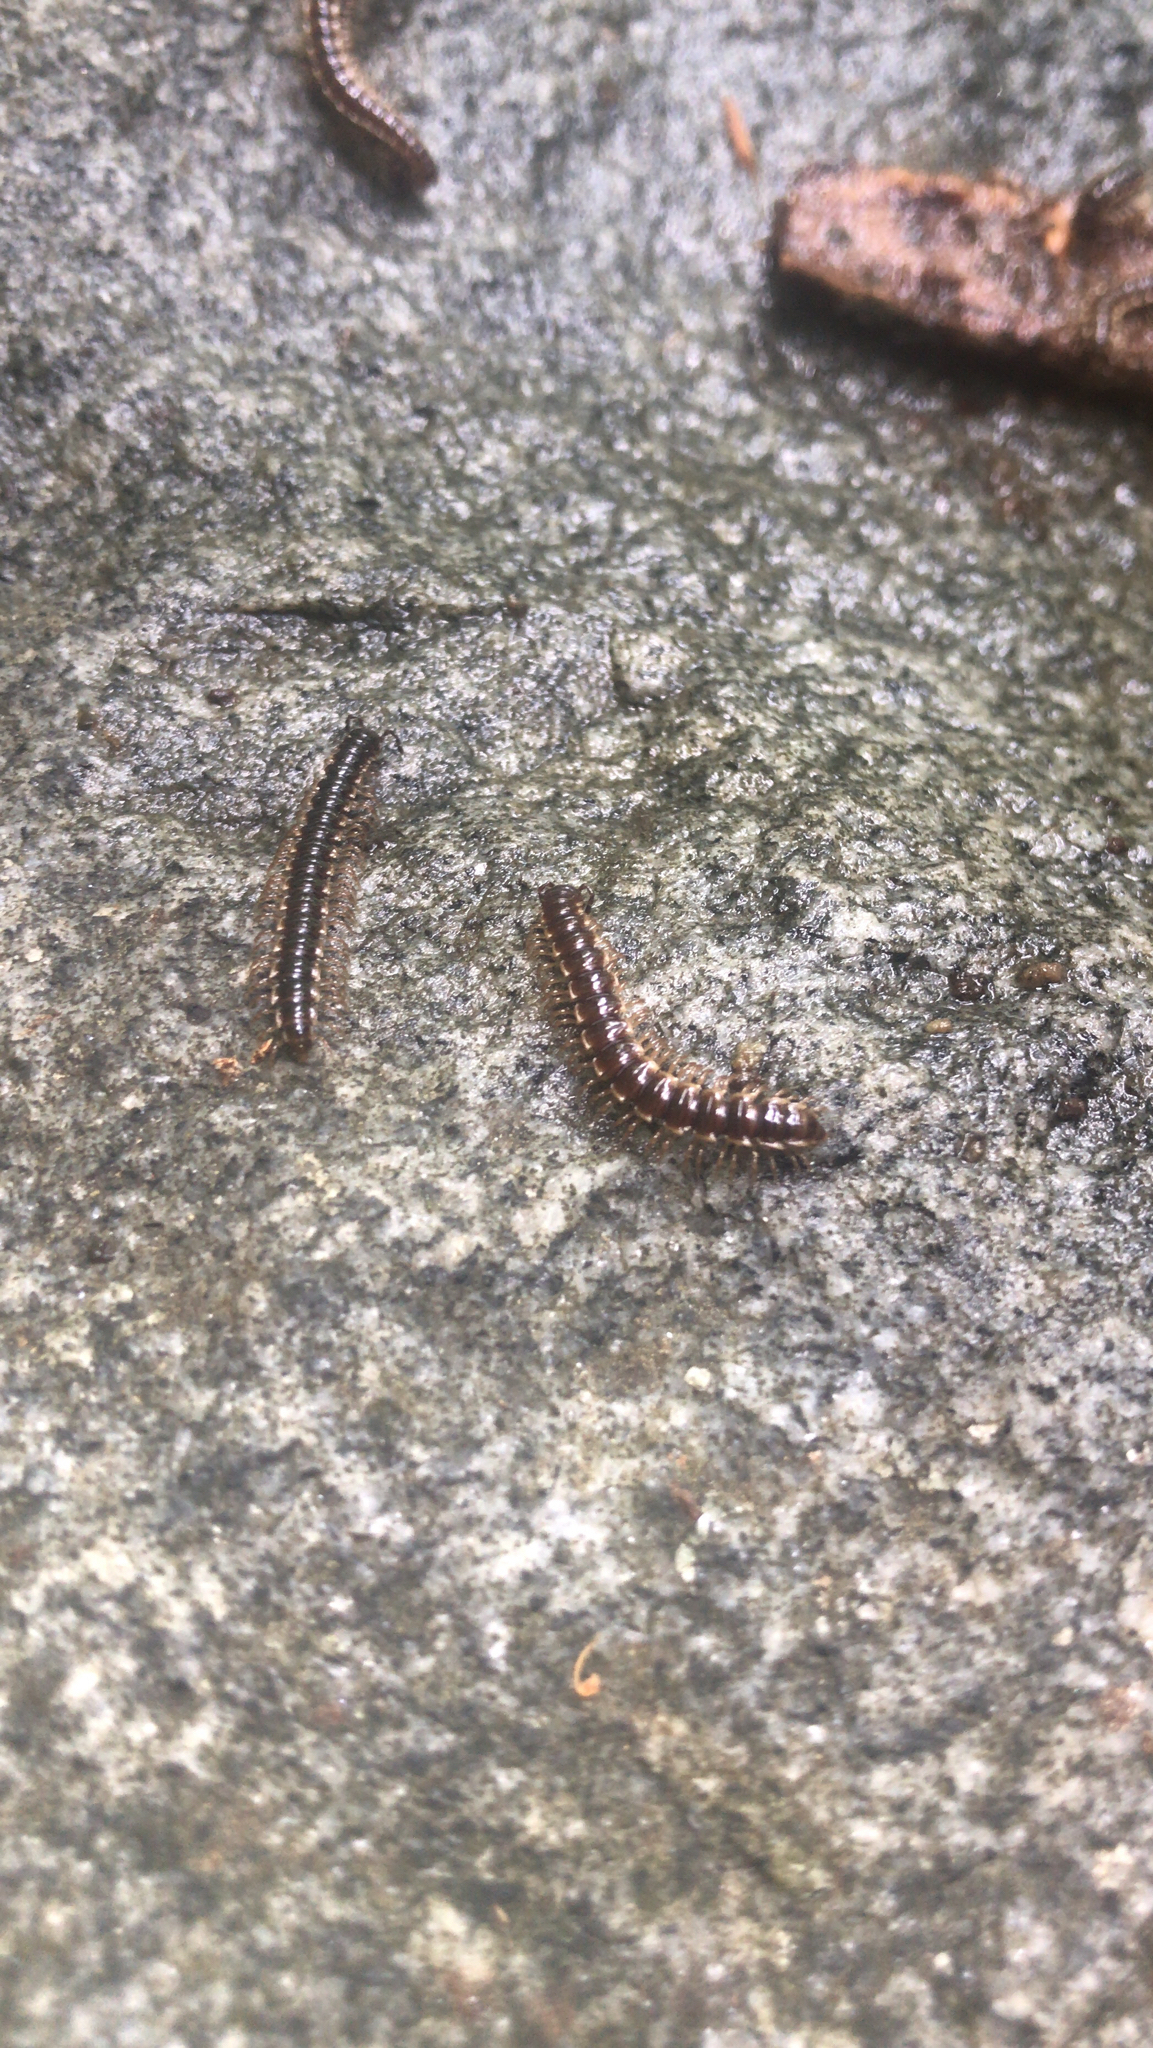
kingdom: Animalia
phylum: Arthropoda
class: Diplopoda
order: Polydesmida
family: Paradoxosomatidae
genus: Oxidus
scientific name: Oxidus gracilis
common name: Greenhouse millipede
